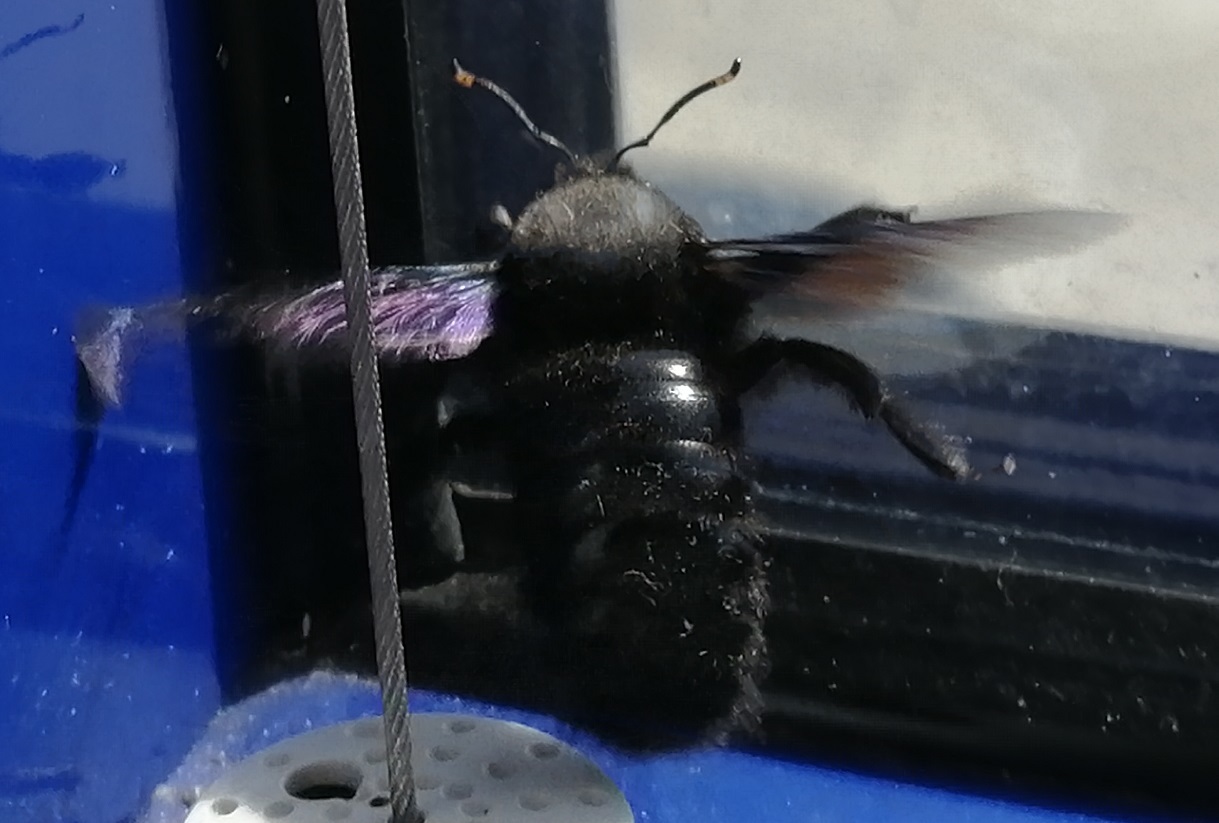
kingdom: Animalia
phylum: Arthropoda
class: Insecta
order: Hymenoptera
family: Apidae
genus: Xylocopa
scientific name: Xylocopa violacea
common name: Violet carpenter bee
